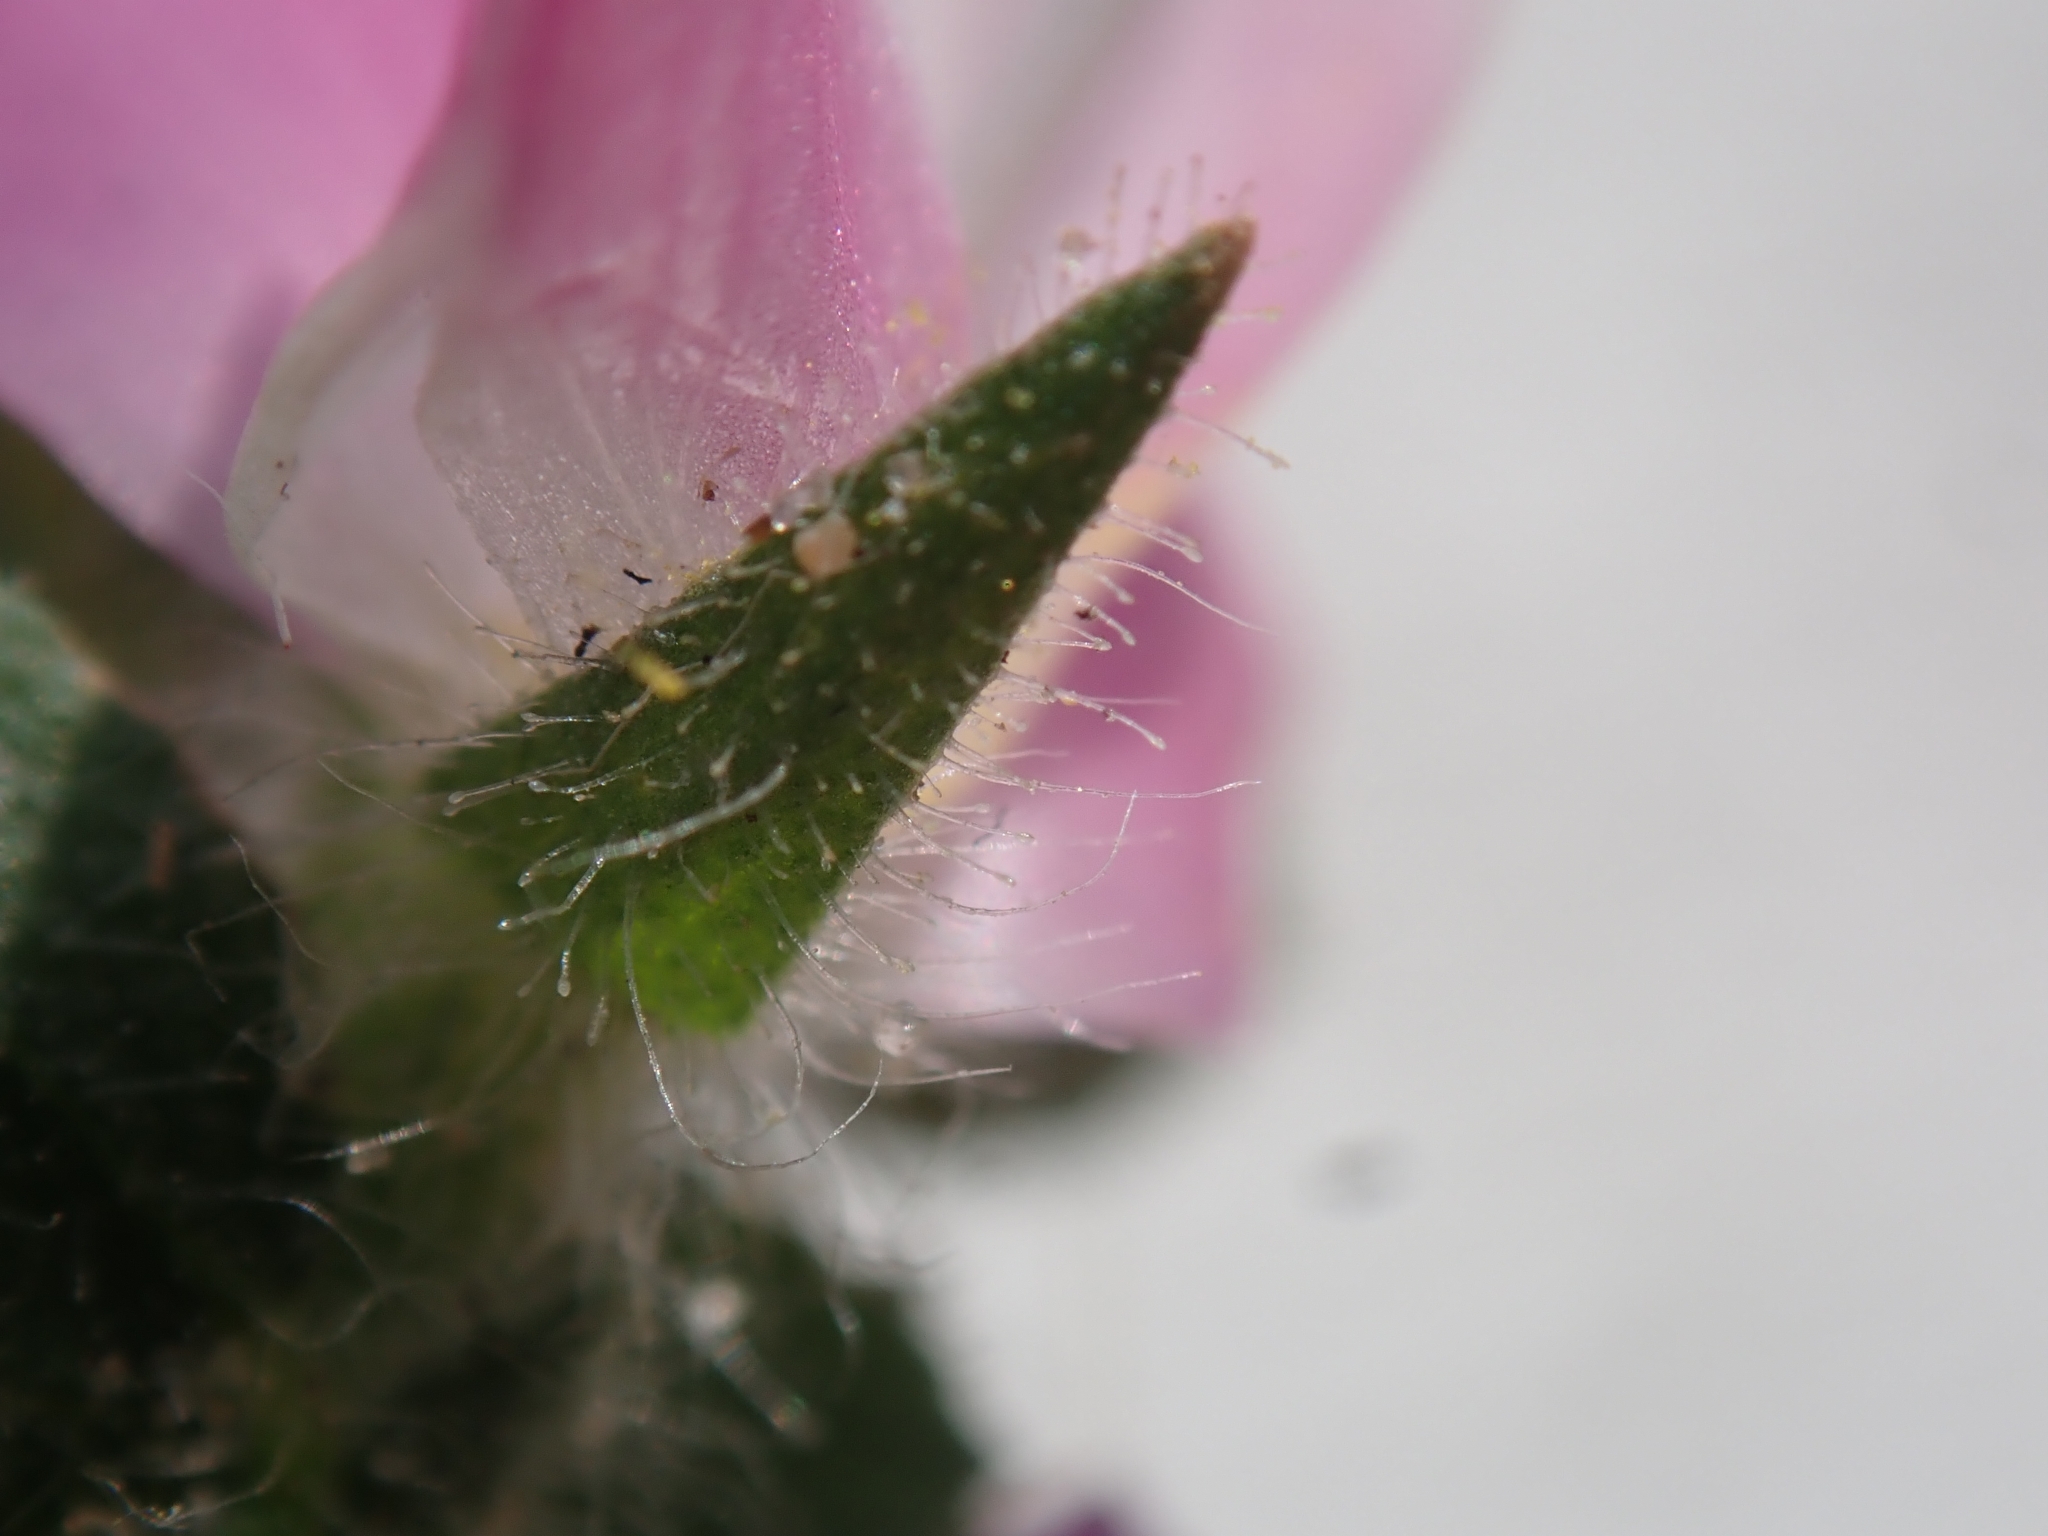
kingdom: Plantae
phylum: Tracheophyta
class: Magnoliopsida
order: Fabales
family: Fabaceae
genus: Ononis
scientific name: Ononis spinosa
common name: Spiny restharrow
